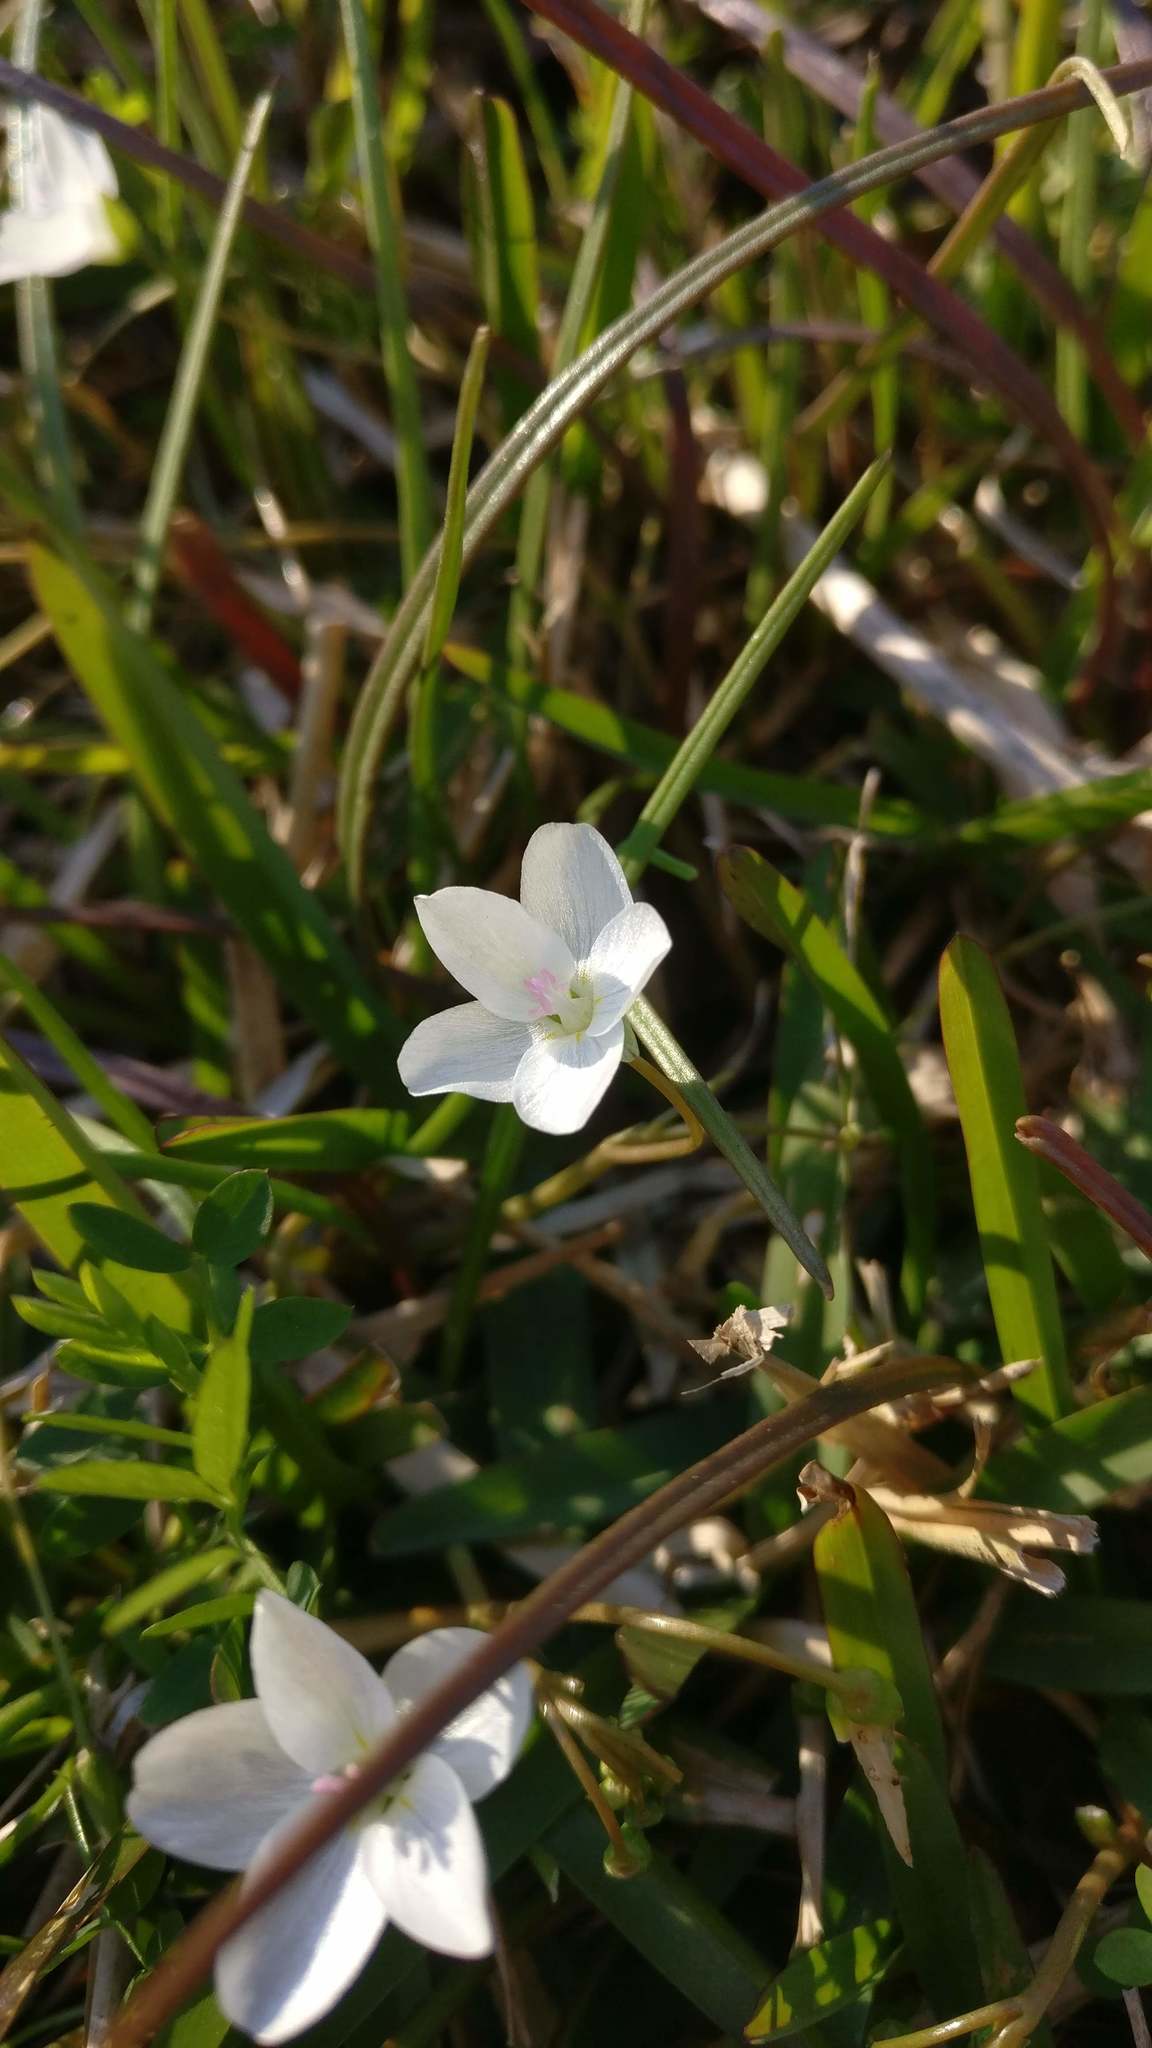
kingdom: Plantae
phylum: Tracheophyta
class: Magnoliopsida
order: Caryophyllales
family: Montiaceae
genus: Claytonia
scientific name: Claytonia virginica
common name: Virginia springbeauty
